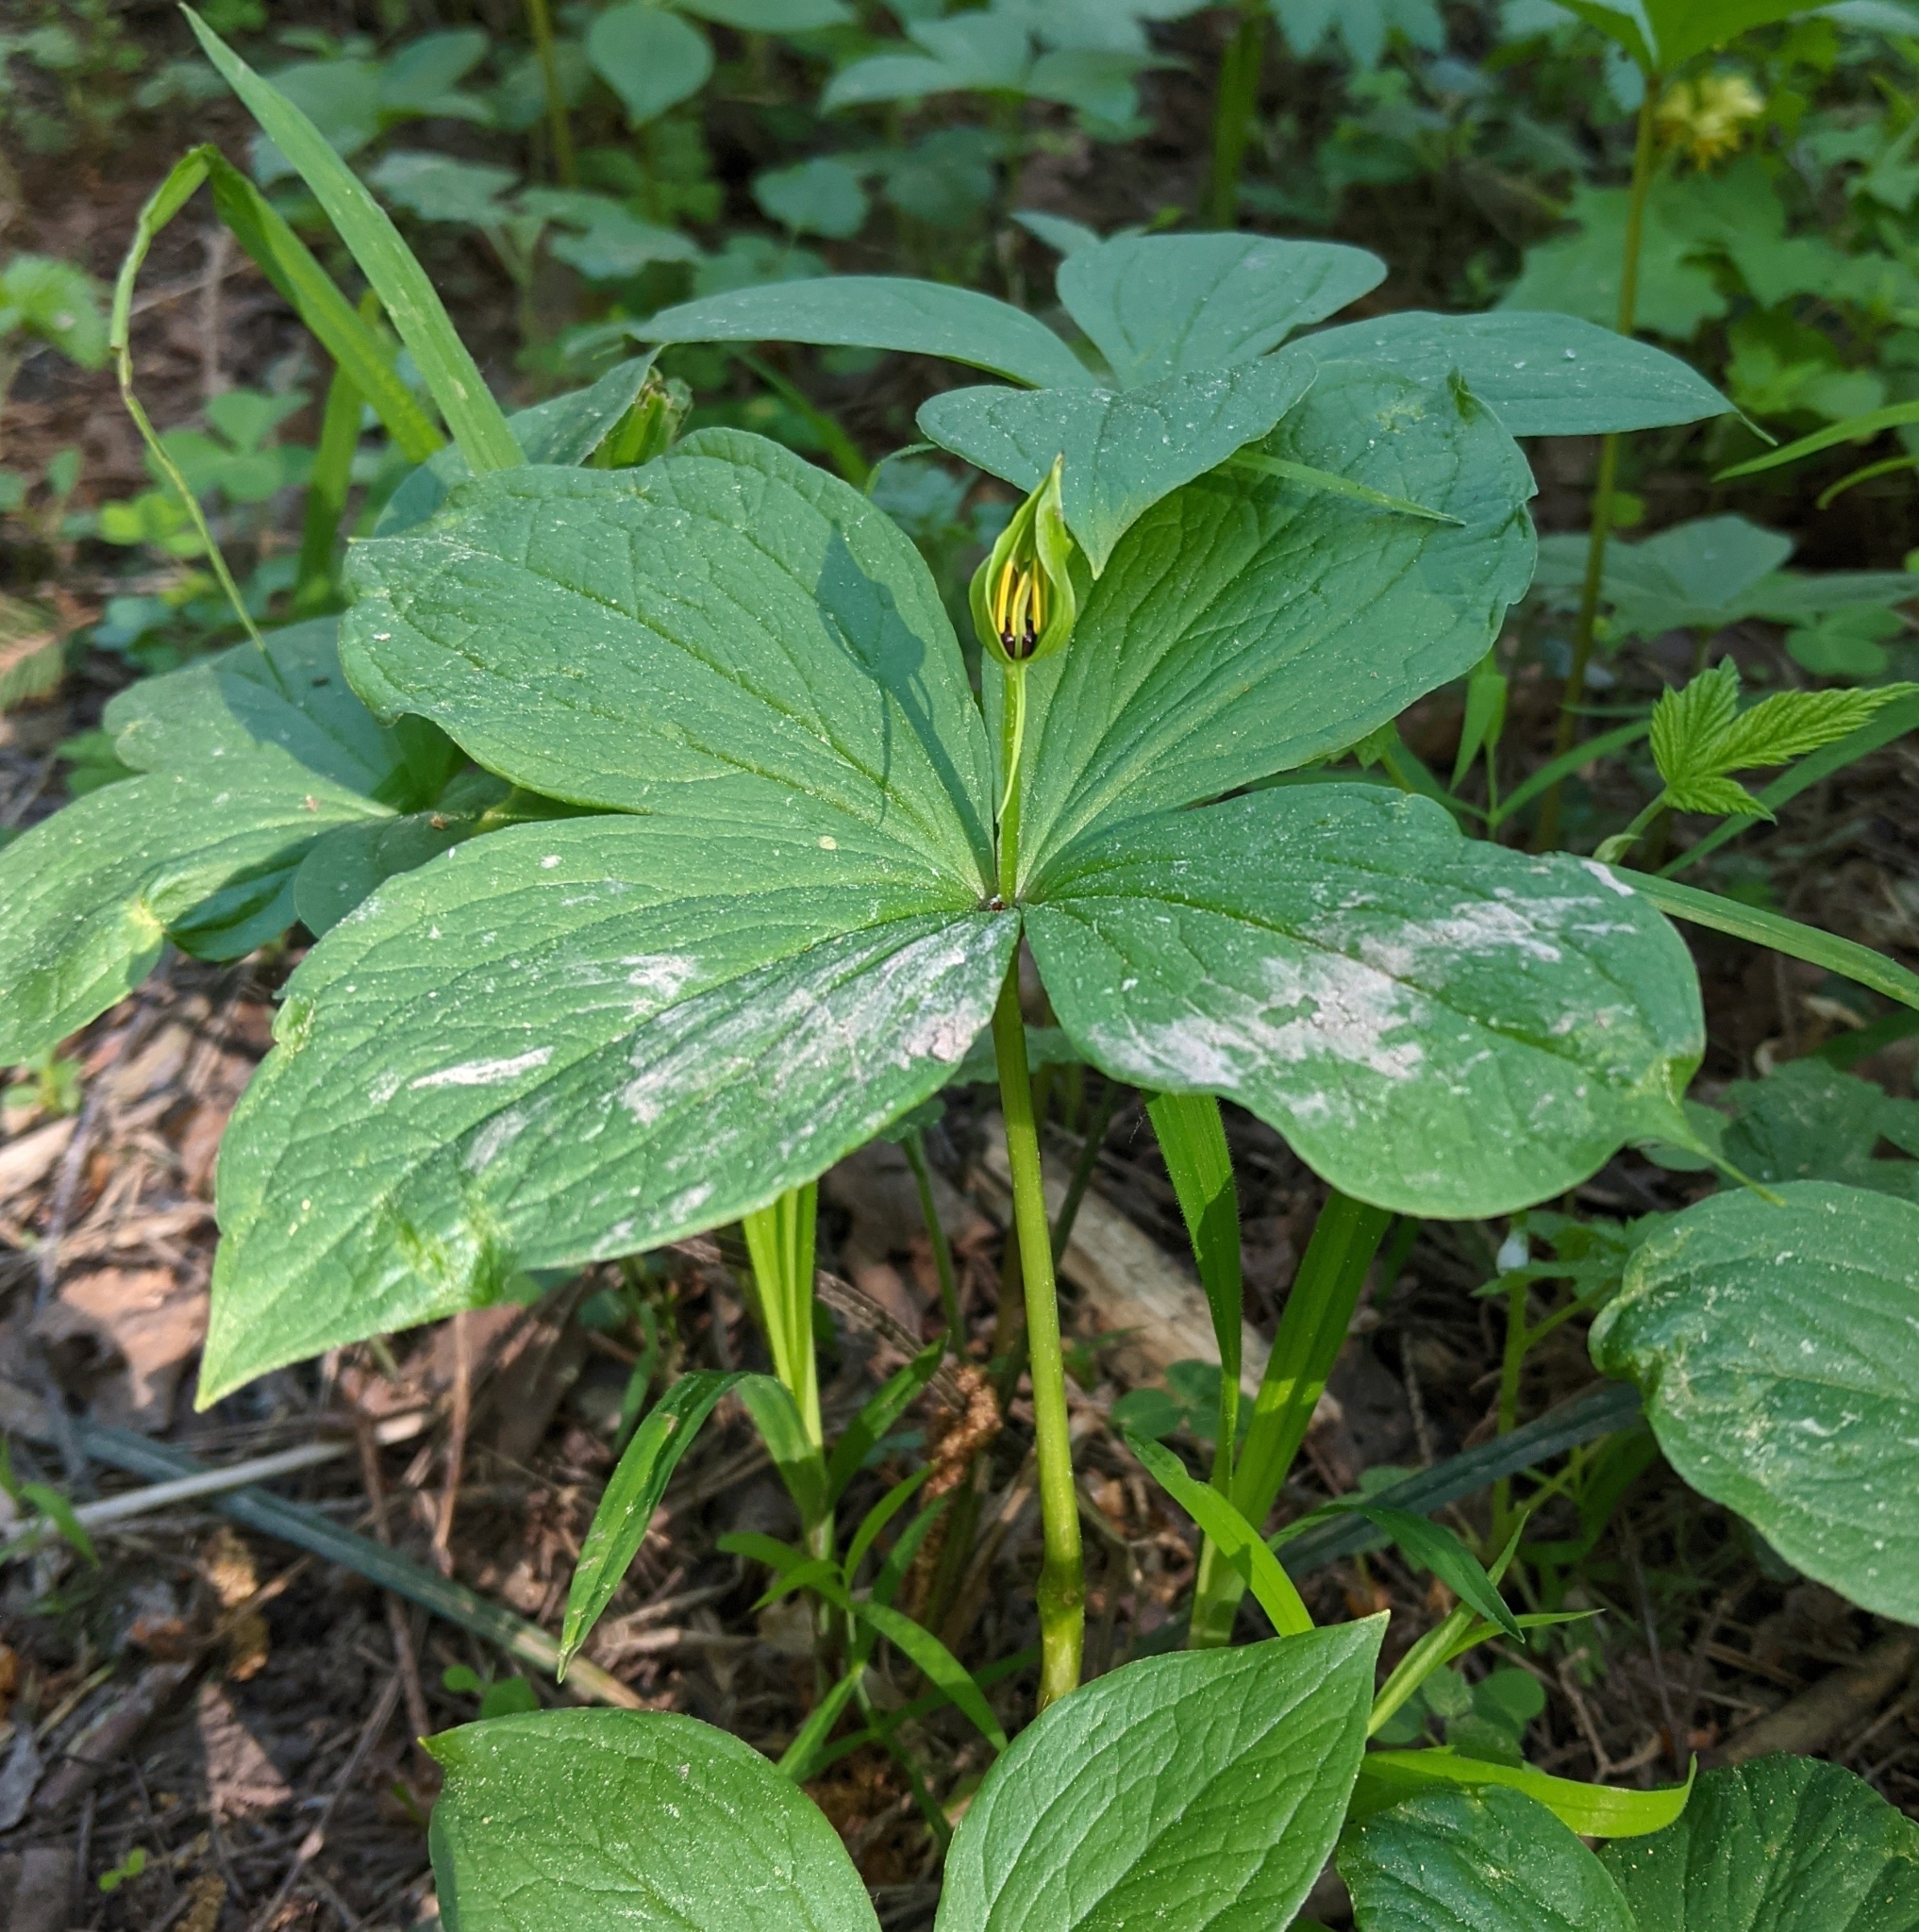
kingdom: Plantae
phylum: Tracheophyta
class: Liliopsida
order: Liliales
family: Melanthiaceae
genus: Paris
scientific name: Paris quadrifolia
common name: Herb-paris
